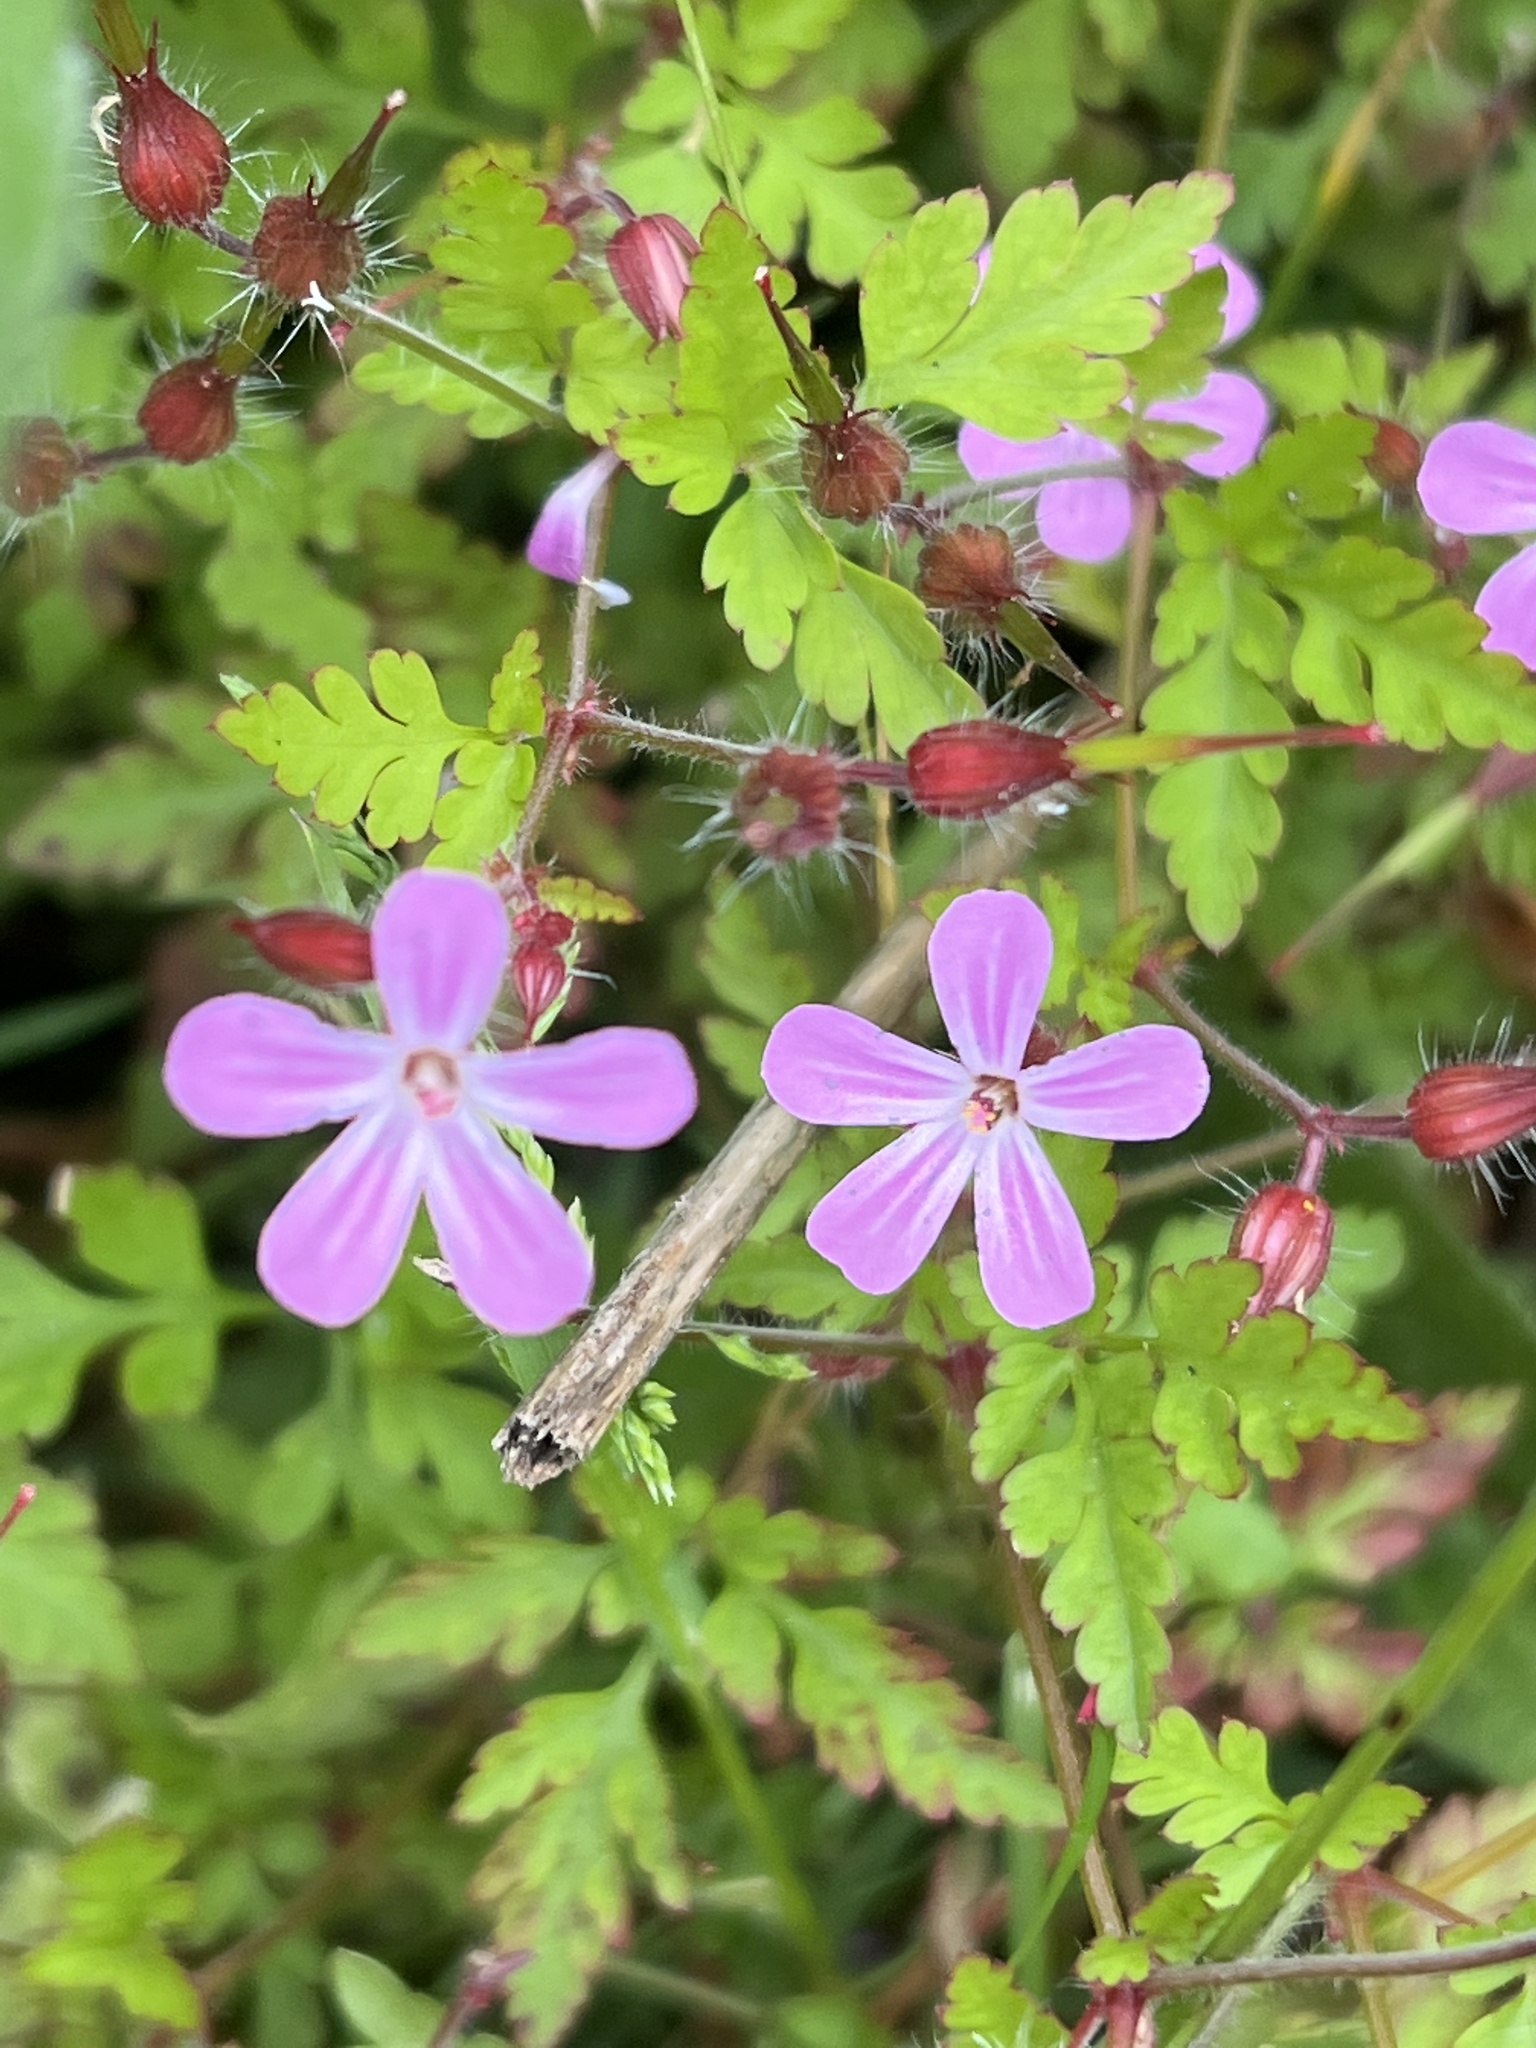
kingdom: Plantae
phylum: Tracheophyta
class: Magnoliopsida
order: Geraniales
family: Geraniaceae
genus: Geranium
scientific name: Geranium robertianum
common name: Herb-robert
